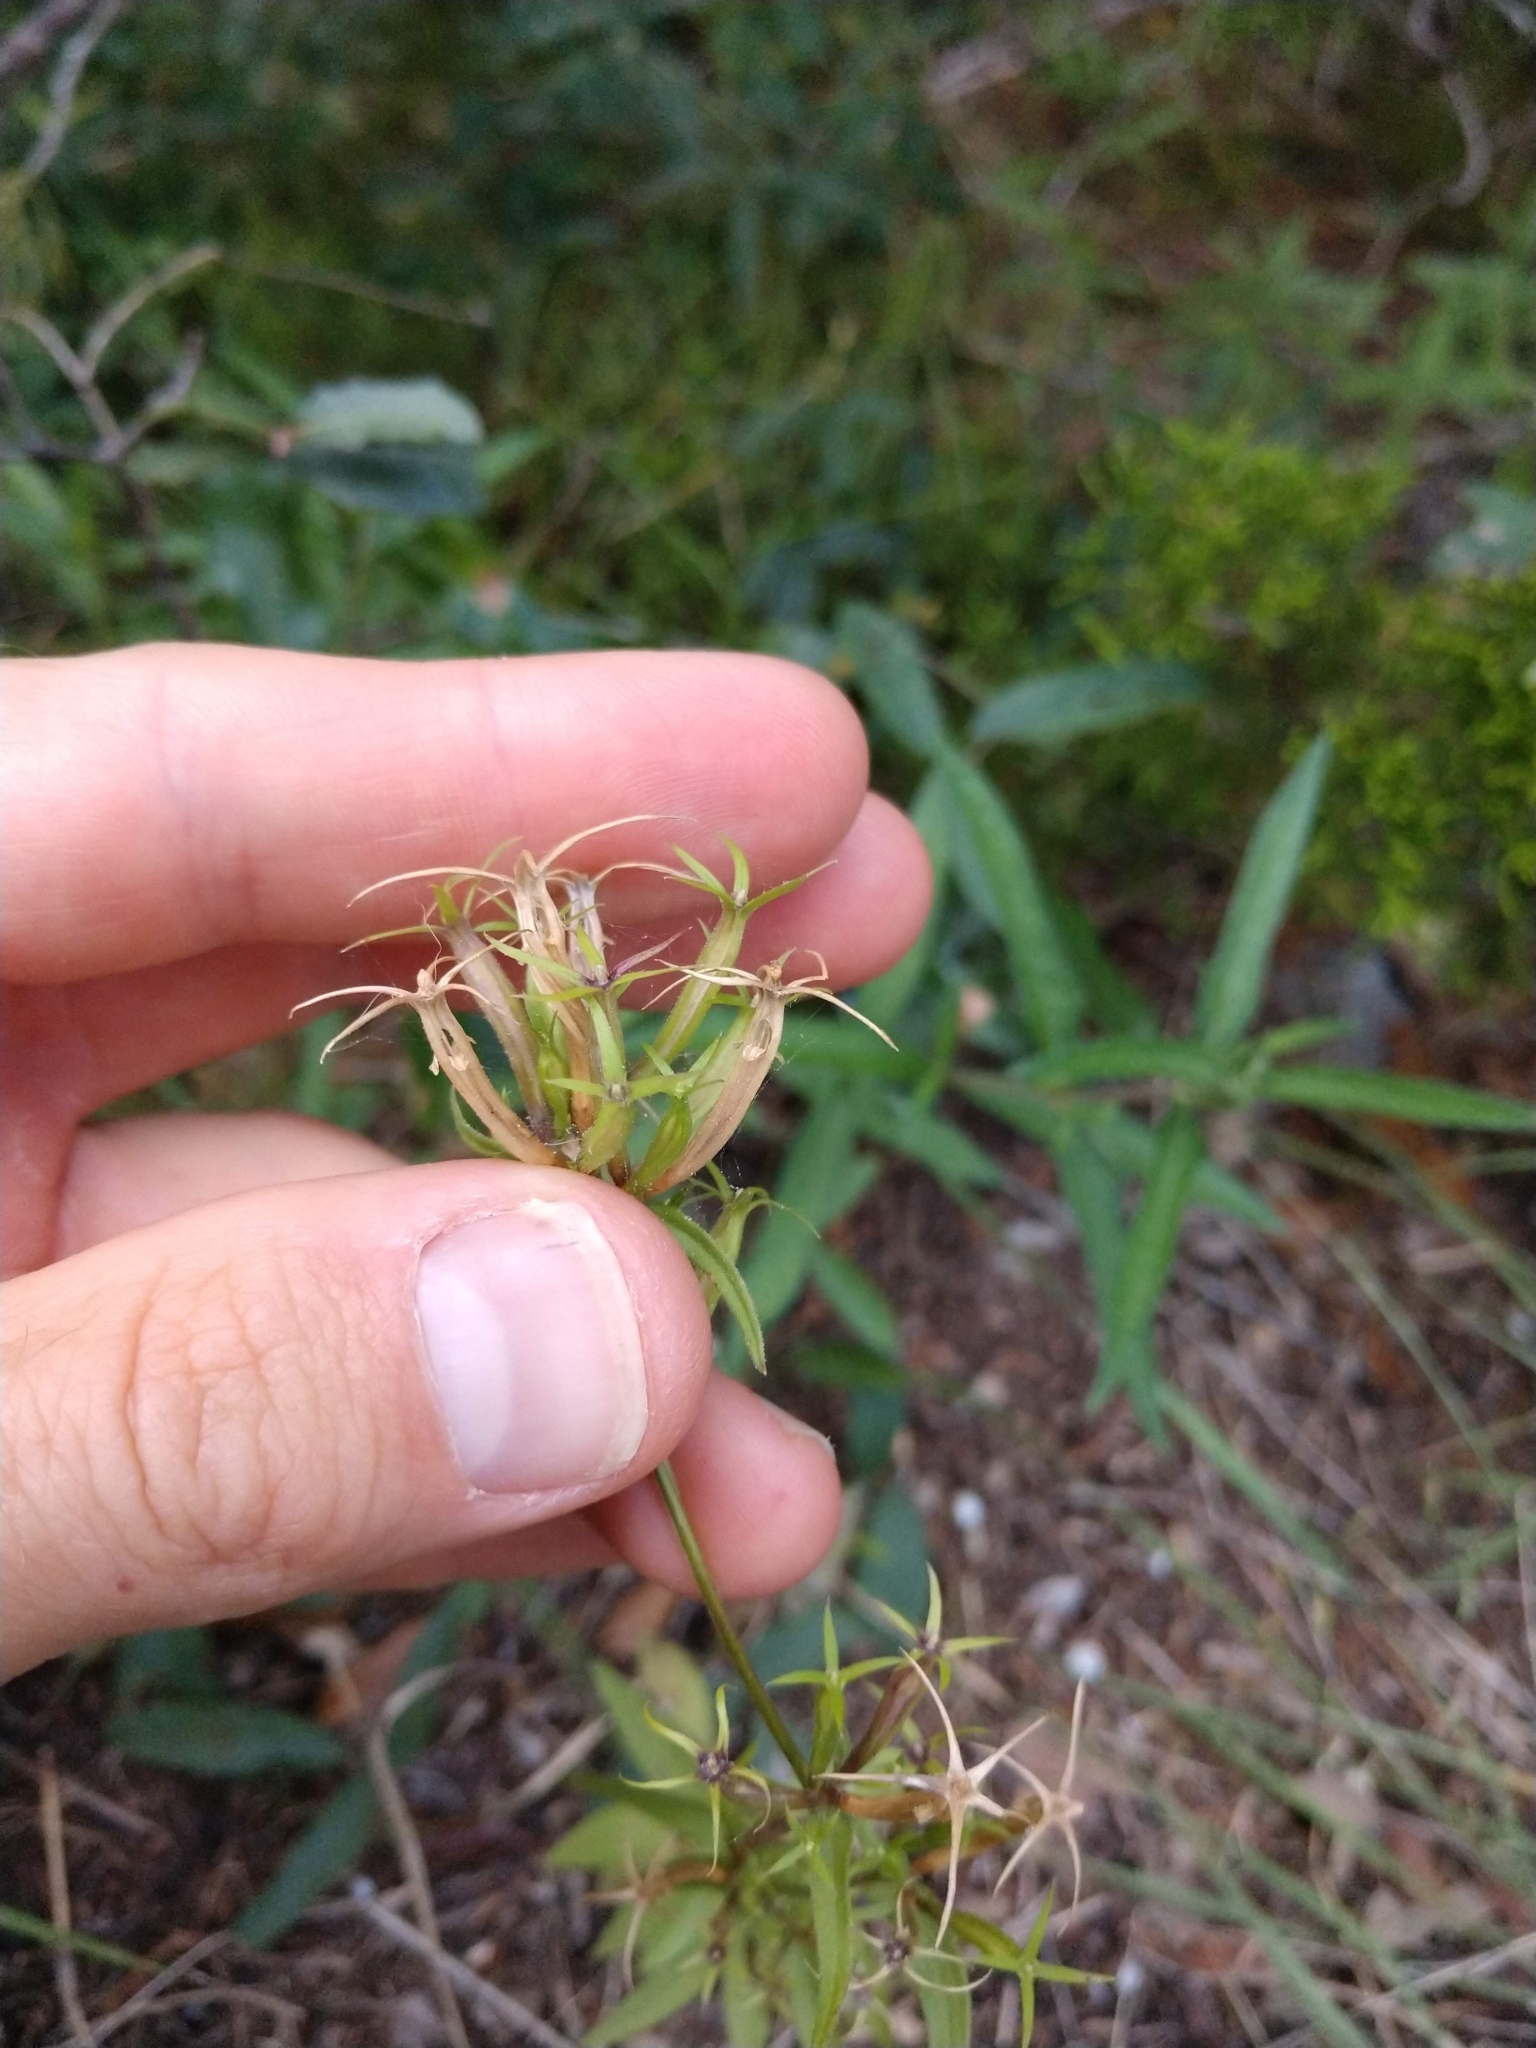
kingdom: Plantae
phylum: Tracheophyta
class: Magnoliopsida
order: Asterales
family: Campanulaceae
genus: Triodanis
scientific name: Triodanis coloradoensis
